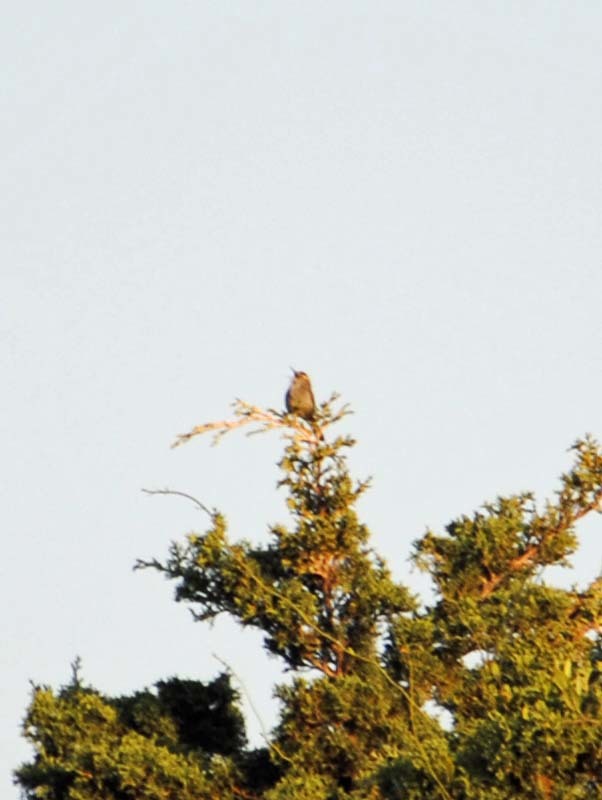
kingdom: Animalia
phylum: Chordata
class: Aves
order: Passeriformes
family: Troglodytidae
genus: Thryomanes
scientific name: Thryomanes bewickii
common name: Bewick's wren
